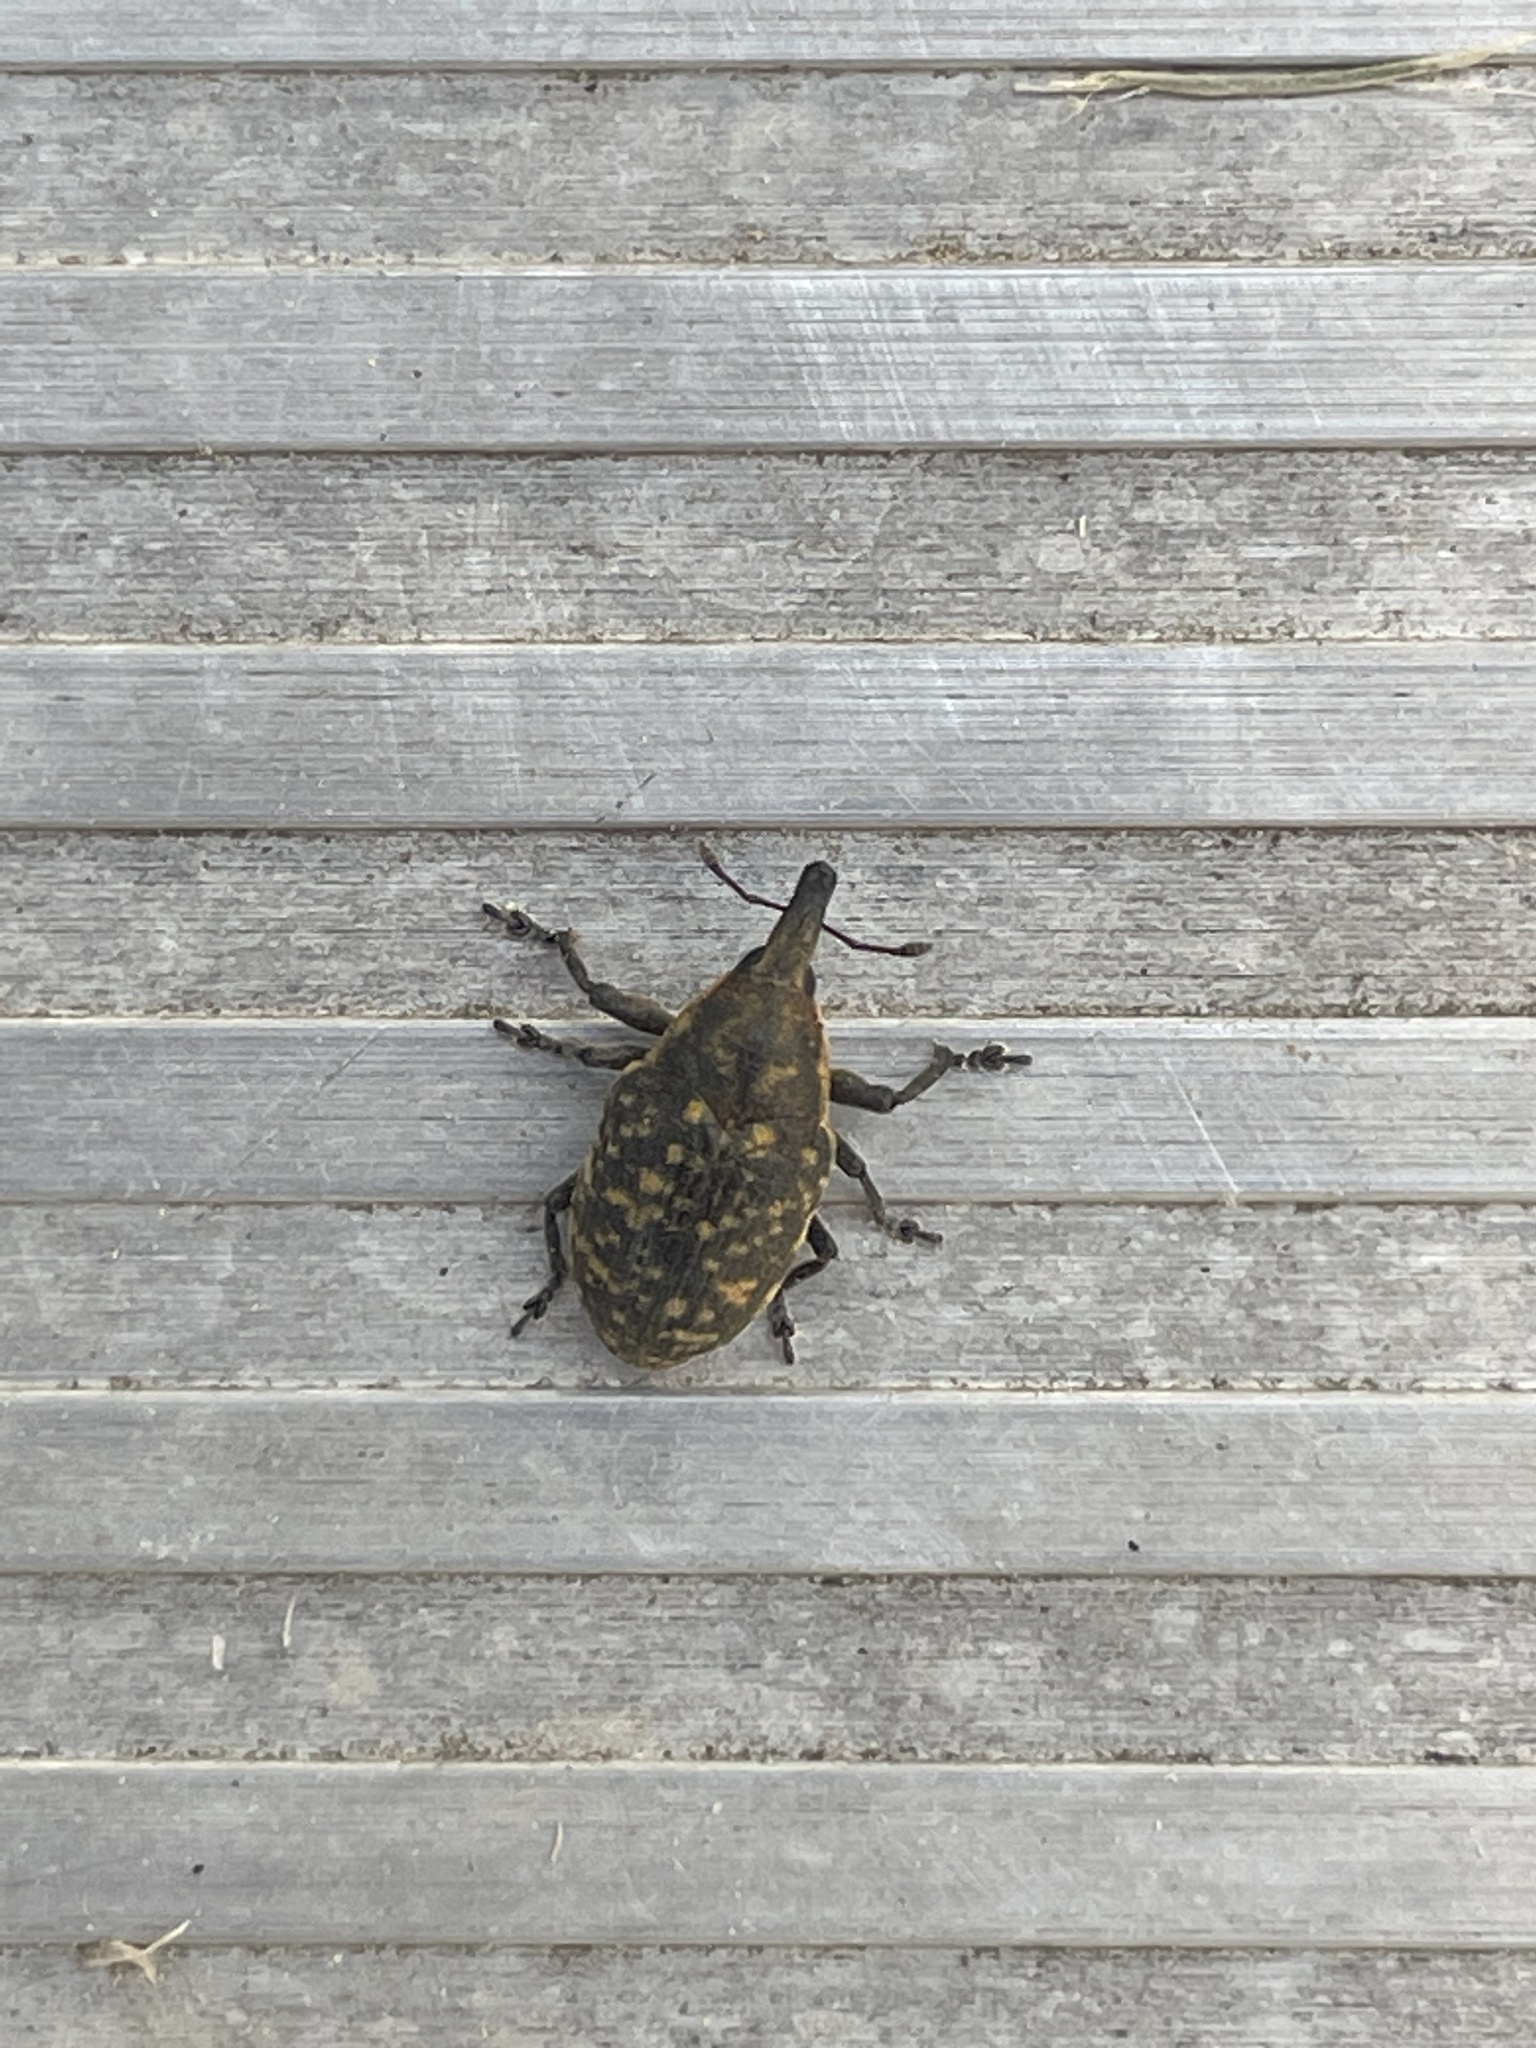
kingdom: Animalia
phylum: Arthropoda
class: Insecta
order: Coleoptera
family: Curculionidae
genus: Larinus
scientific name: Larinus turbinatus
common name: Weevil
